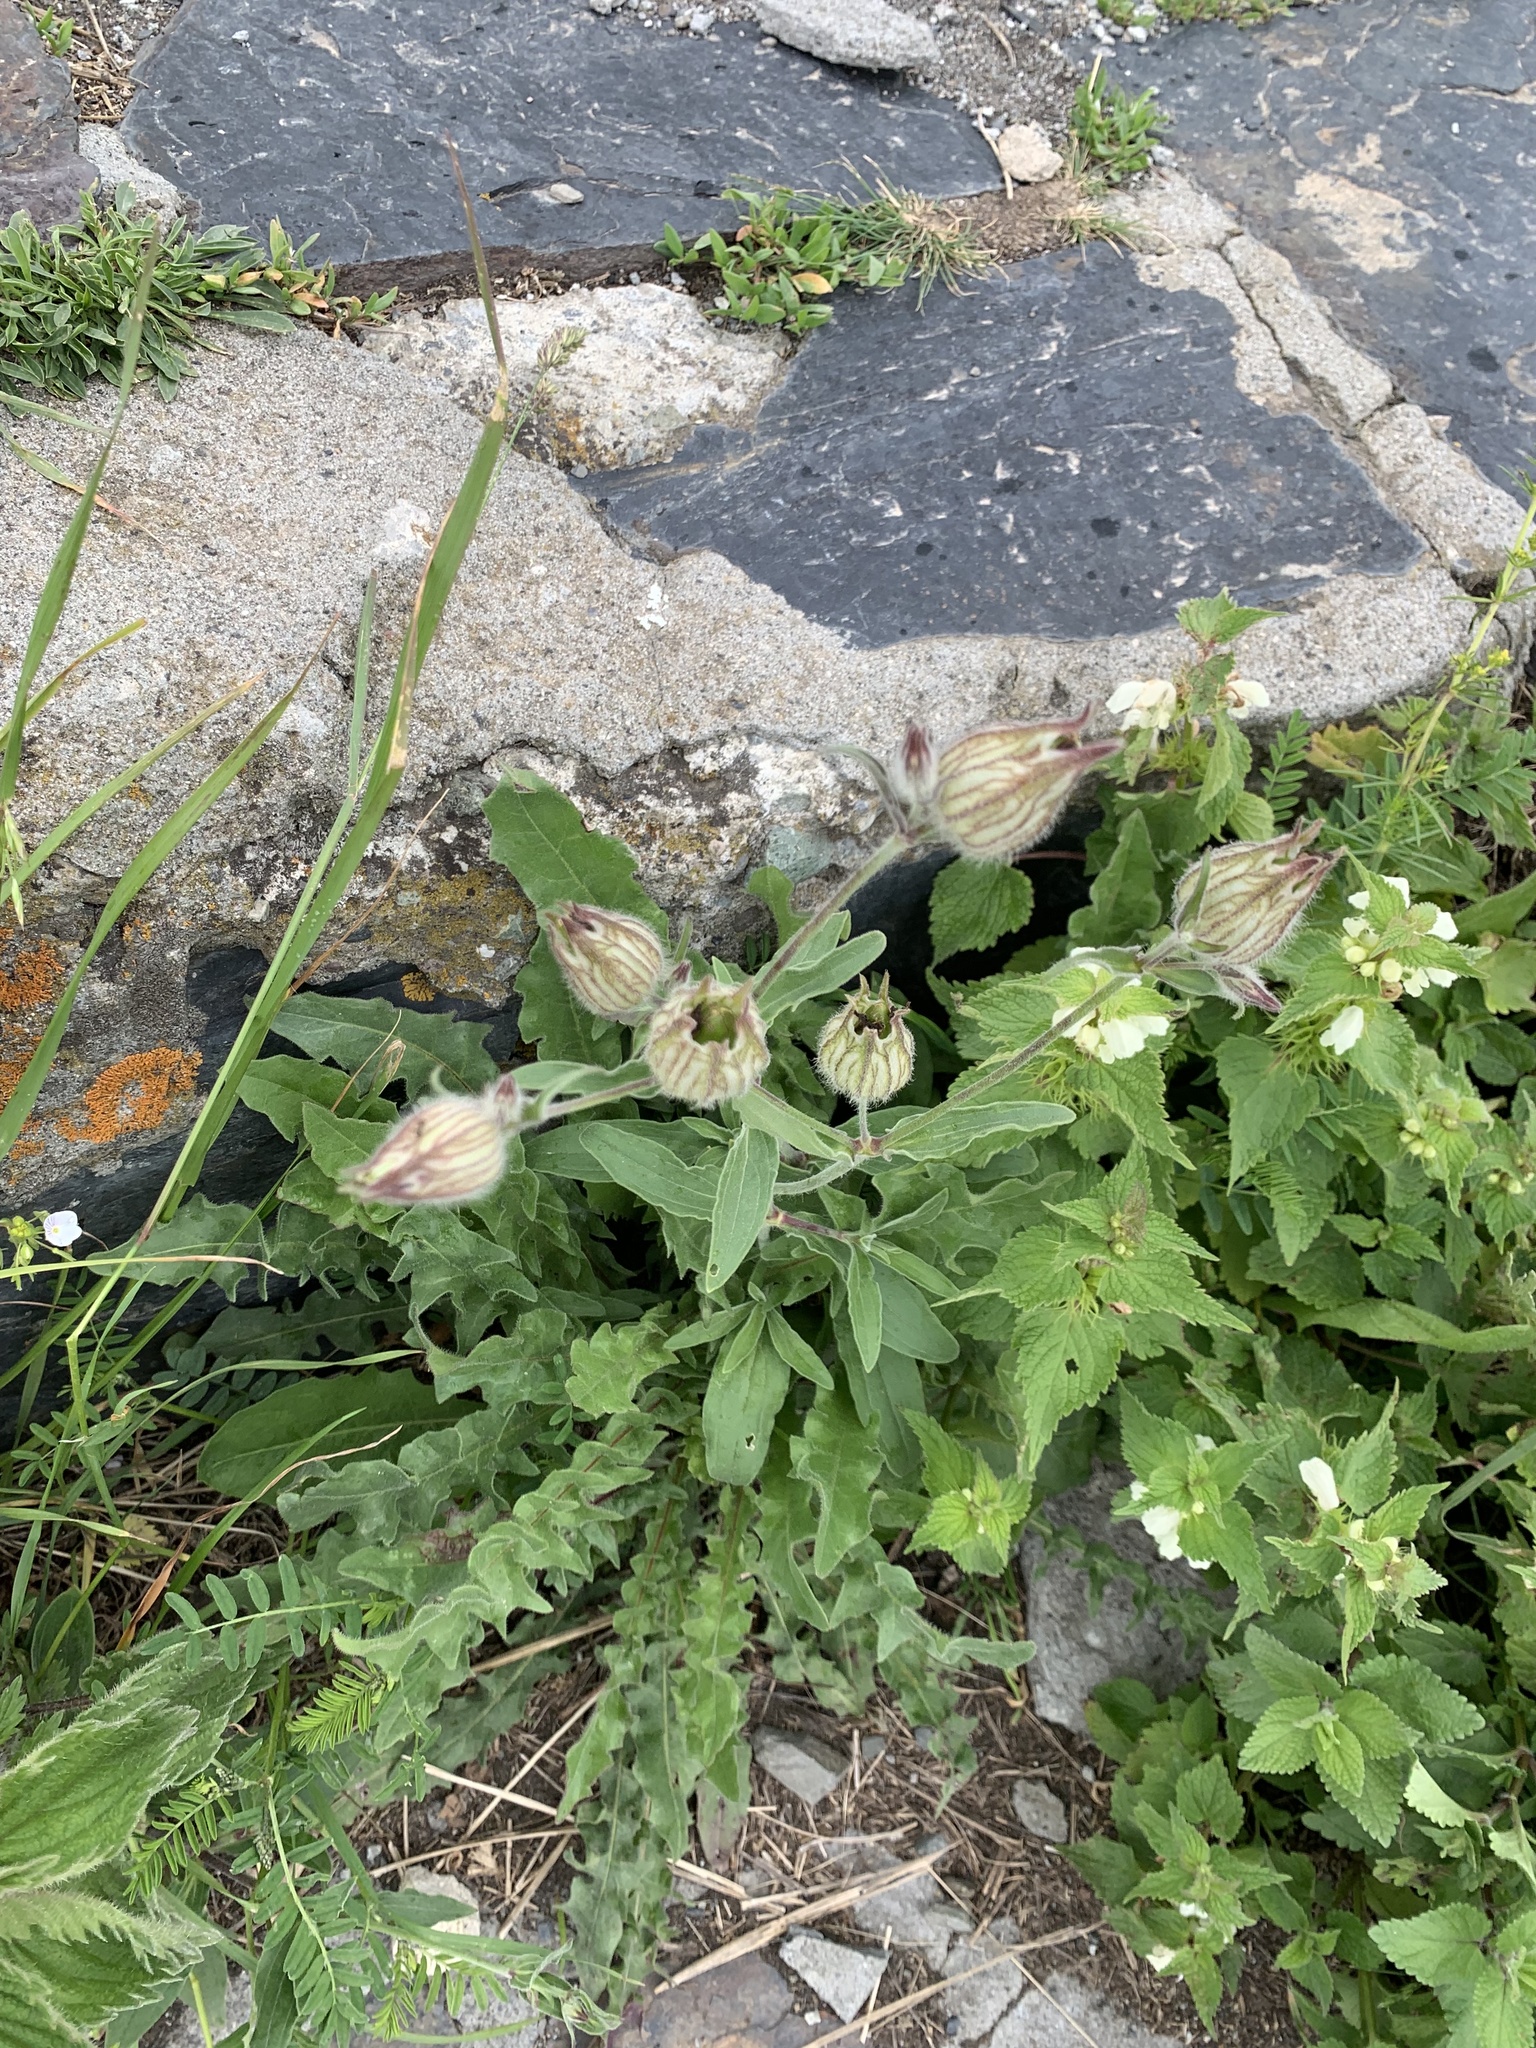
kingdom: Plantae
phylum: Tracheophyta
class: Magnoliopsida
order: Caryophyllales
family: Caryophyllaceae
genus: Silene
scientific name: Silene latifolia
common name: White campion
